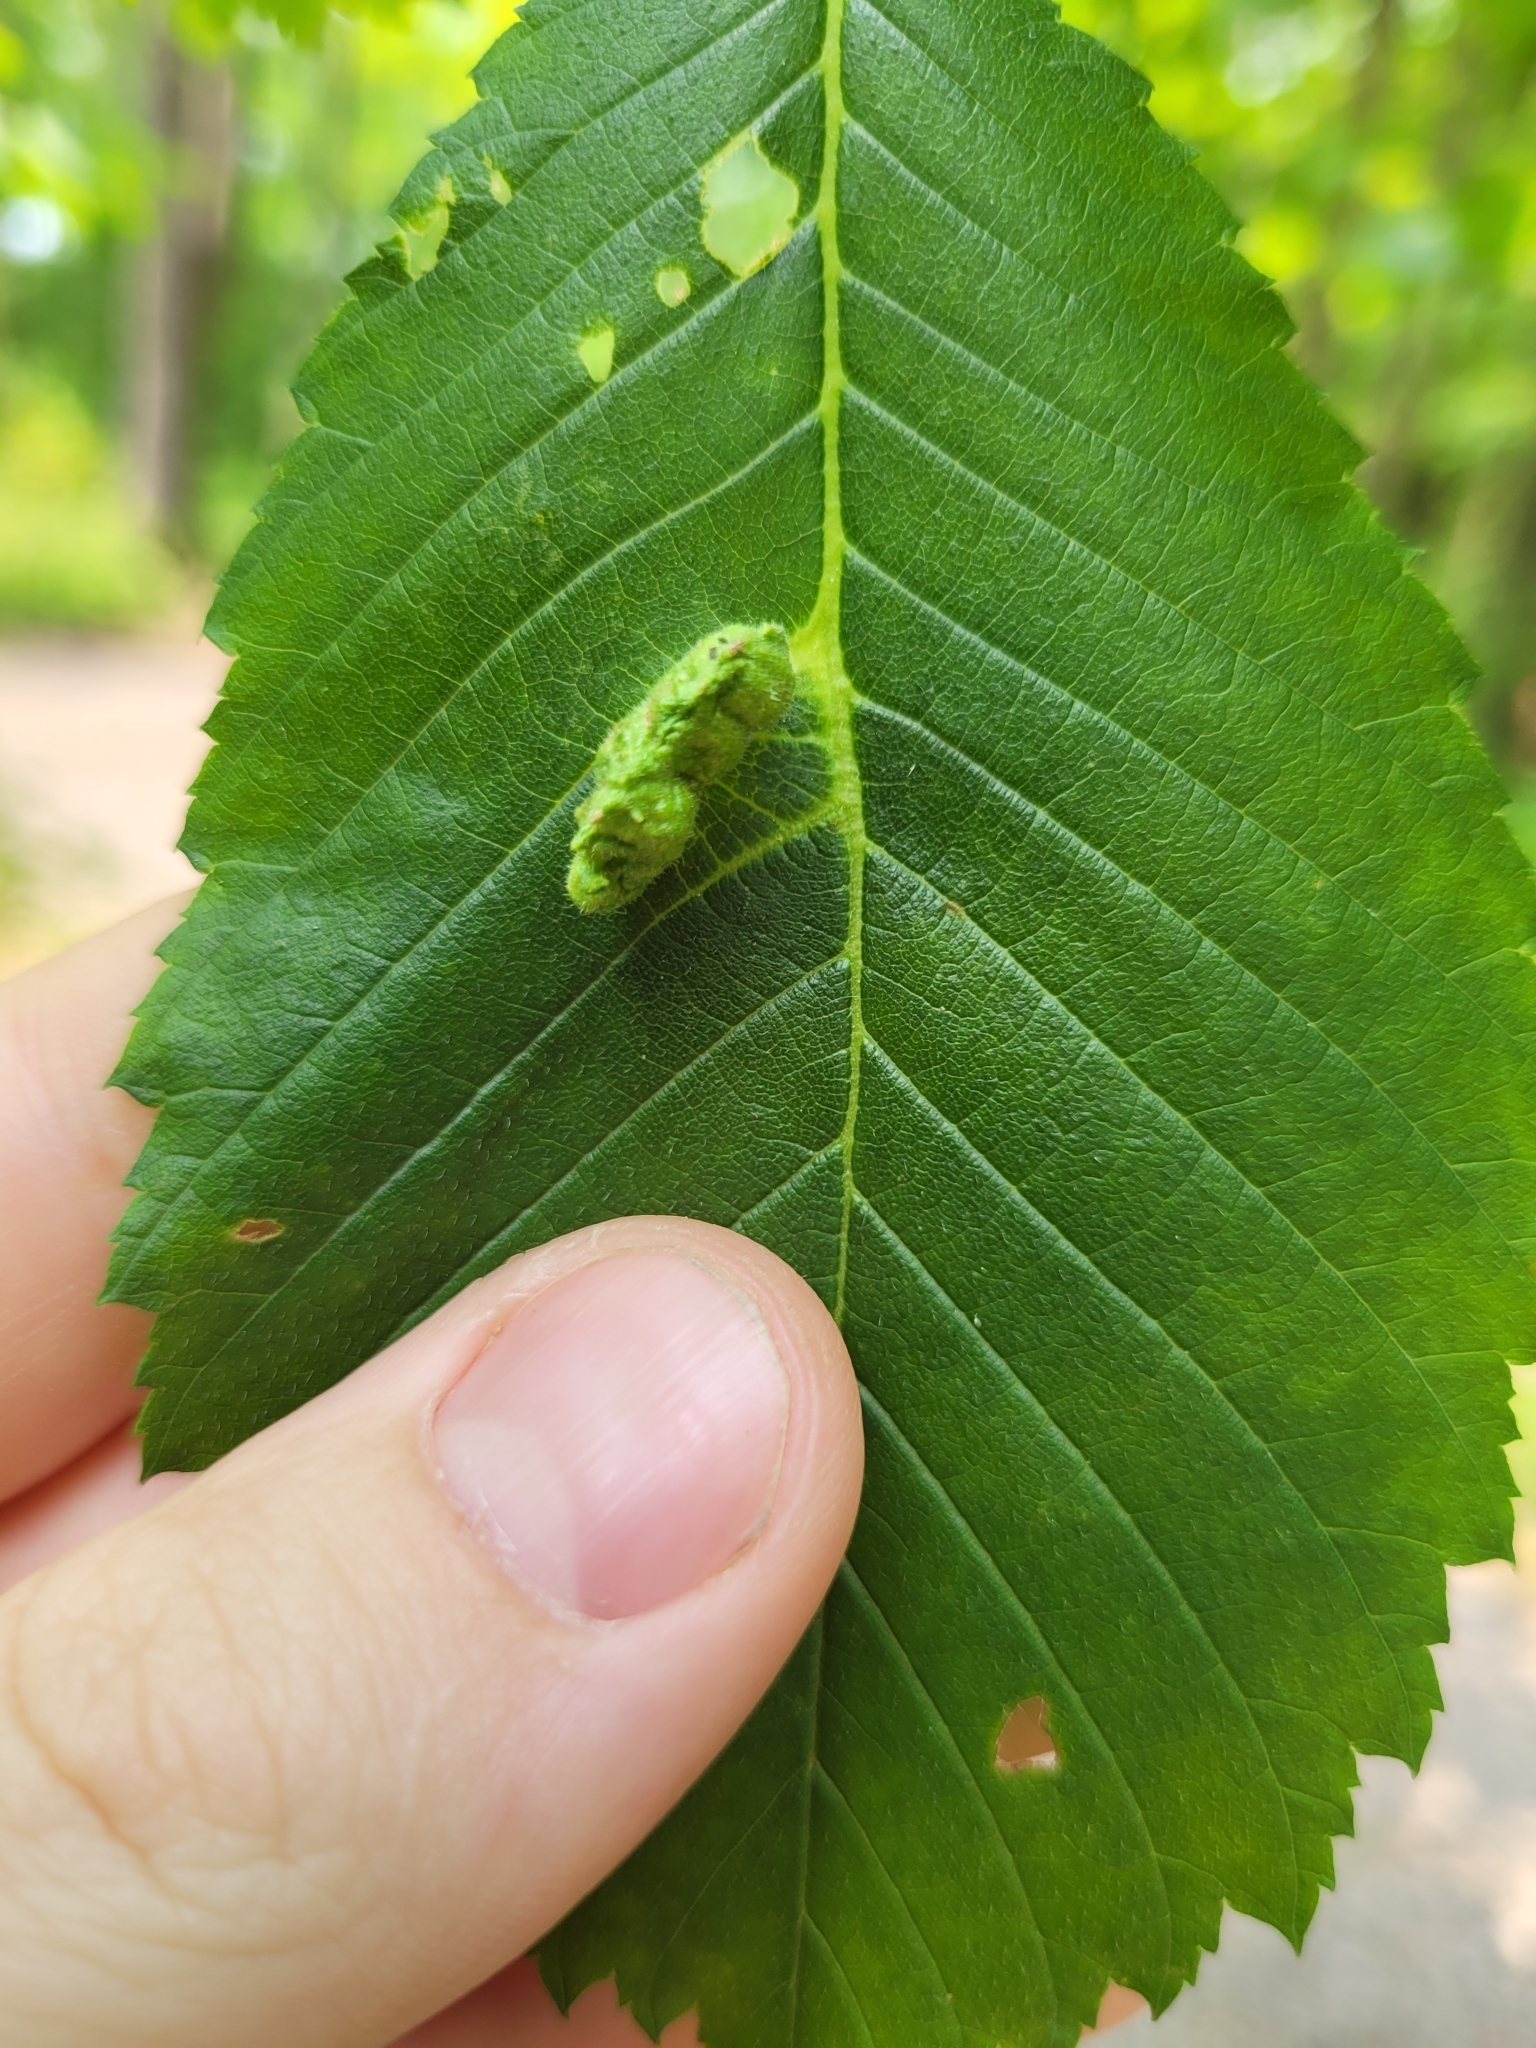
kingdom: Animalia
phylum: Arthropoda
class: Insecta
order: Hemiptera
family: Aphididae
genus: Colopha
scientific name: Colopha ulmicola
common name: Elm cockscombgall aphid
